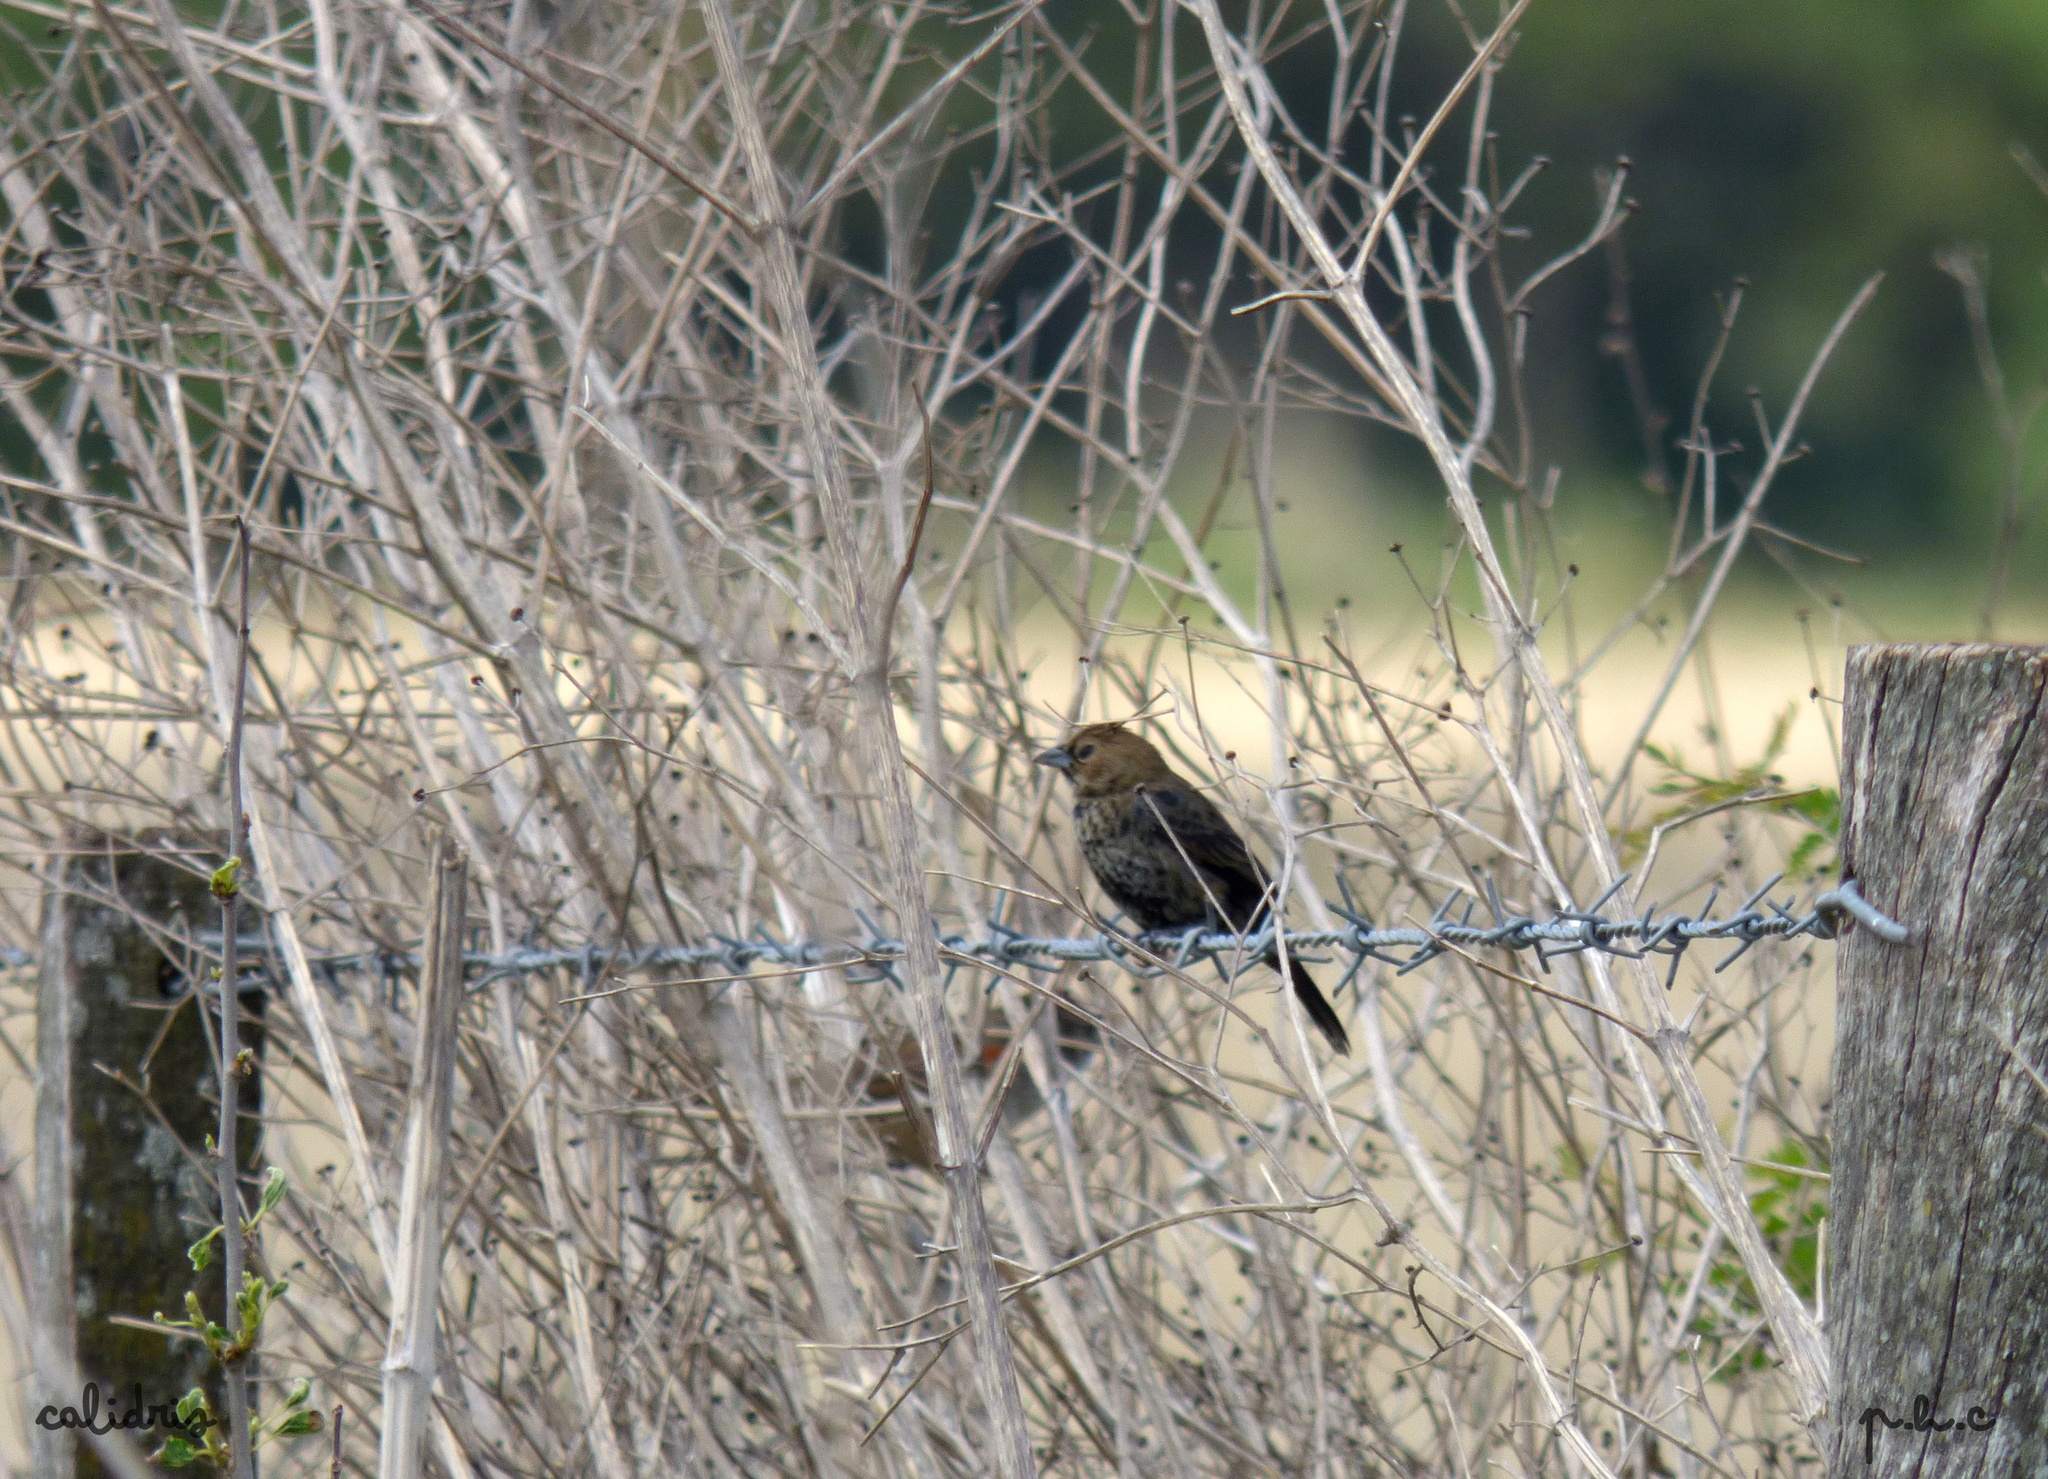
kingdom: Animalia
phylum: Chordata
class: Aves
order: Passeriformes
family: Thraupidae
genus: Volatinia
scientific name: Volatinia jacarina
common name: Blue-black grassquit
